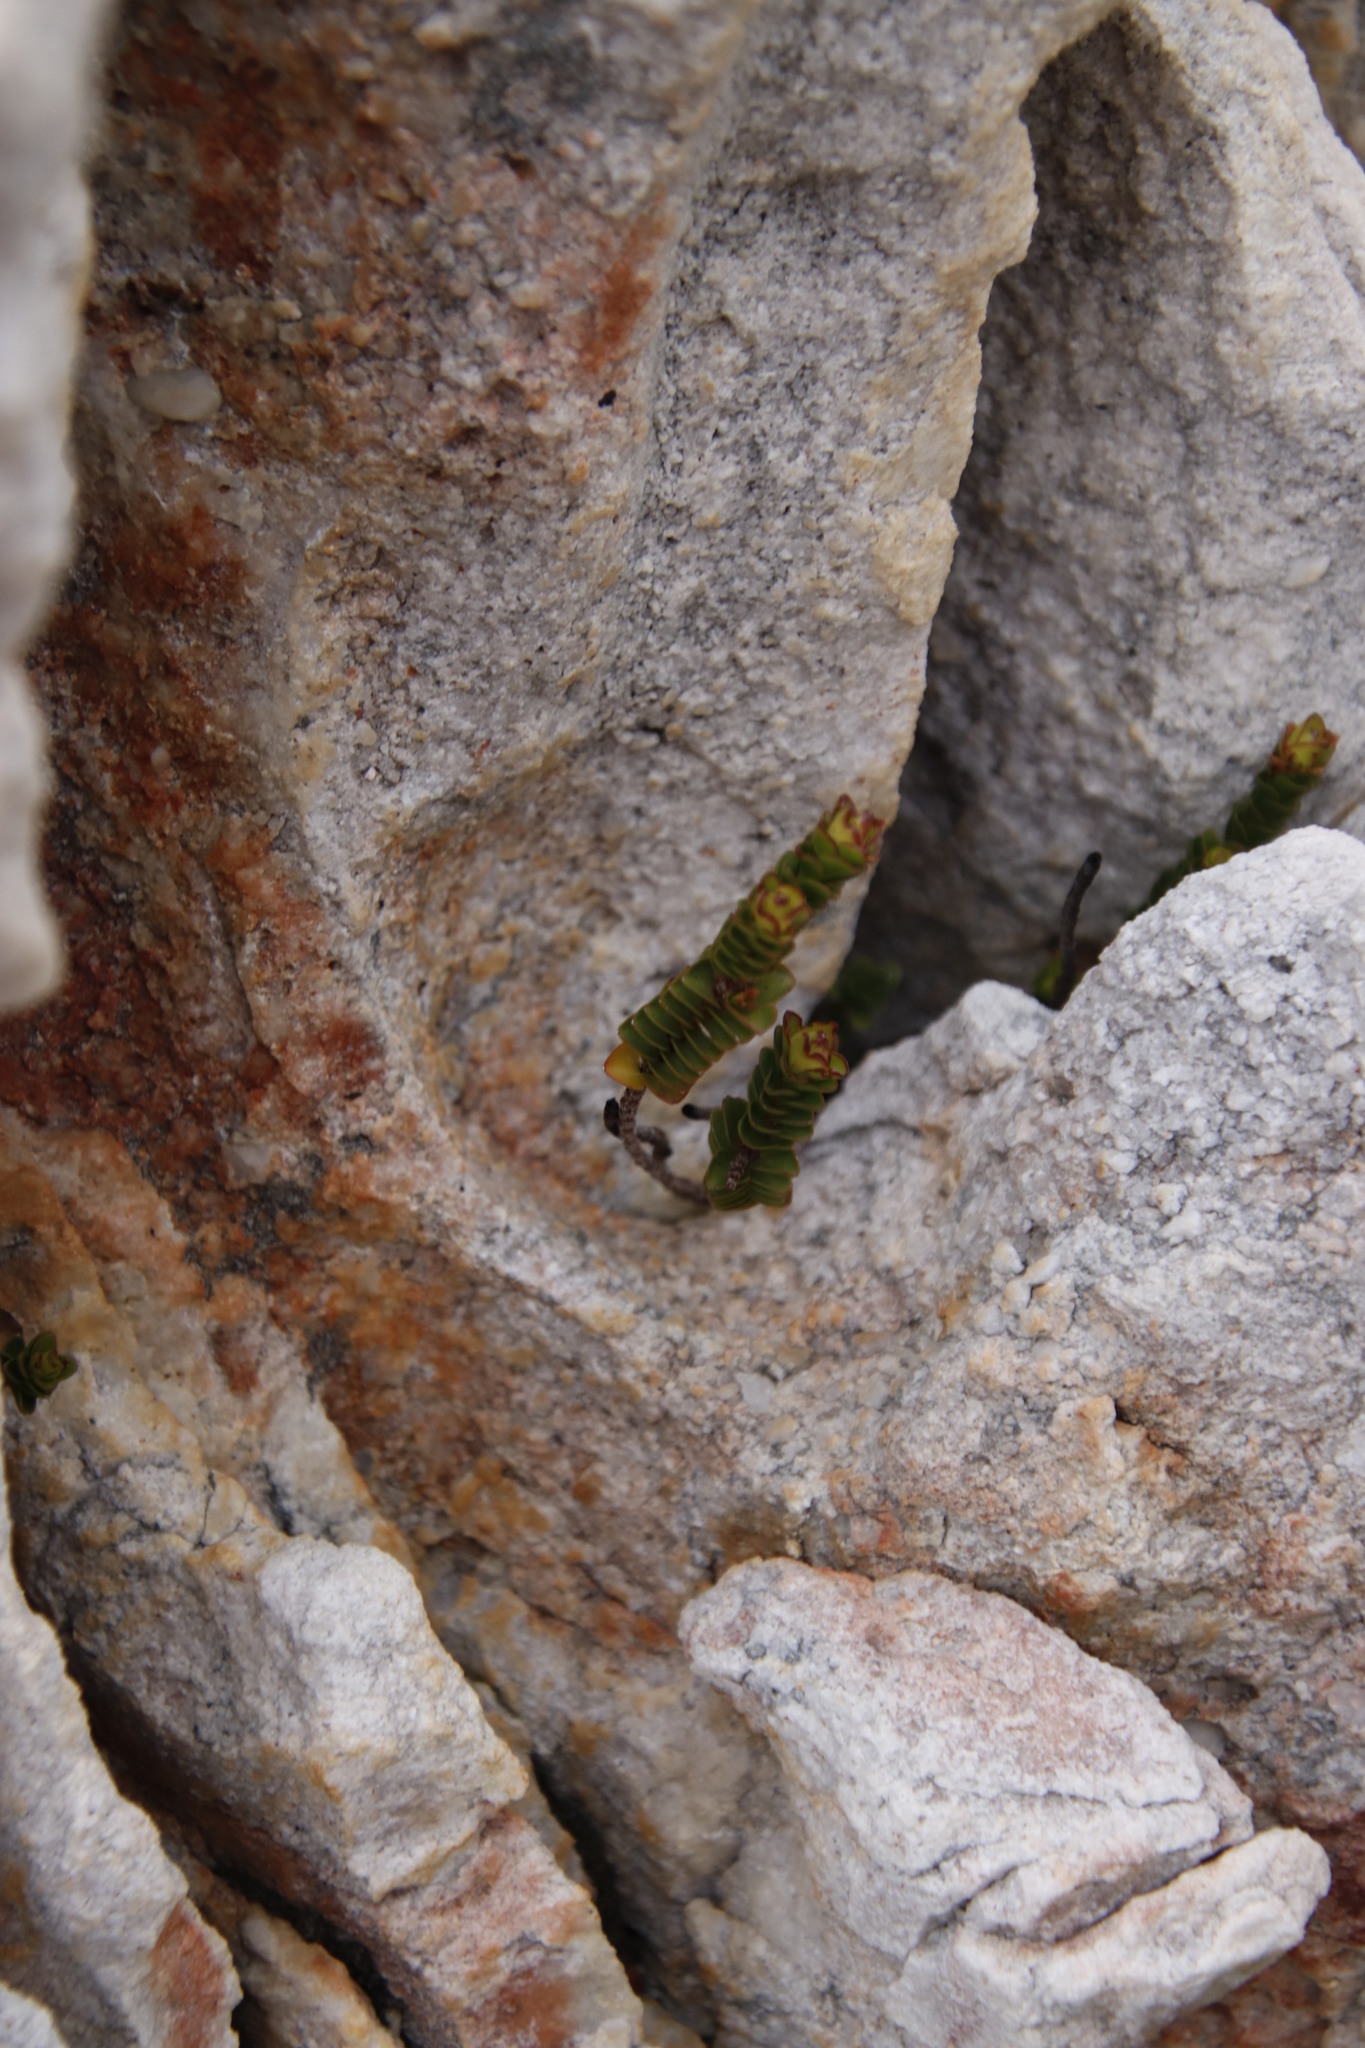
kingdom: Plantae
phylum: Tracheophyta
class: Magnoliopsida
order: Myrtales
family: Penaeaceae
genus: Sonderothamnus
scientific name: Sonderothamnus petraeus
